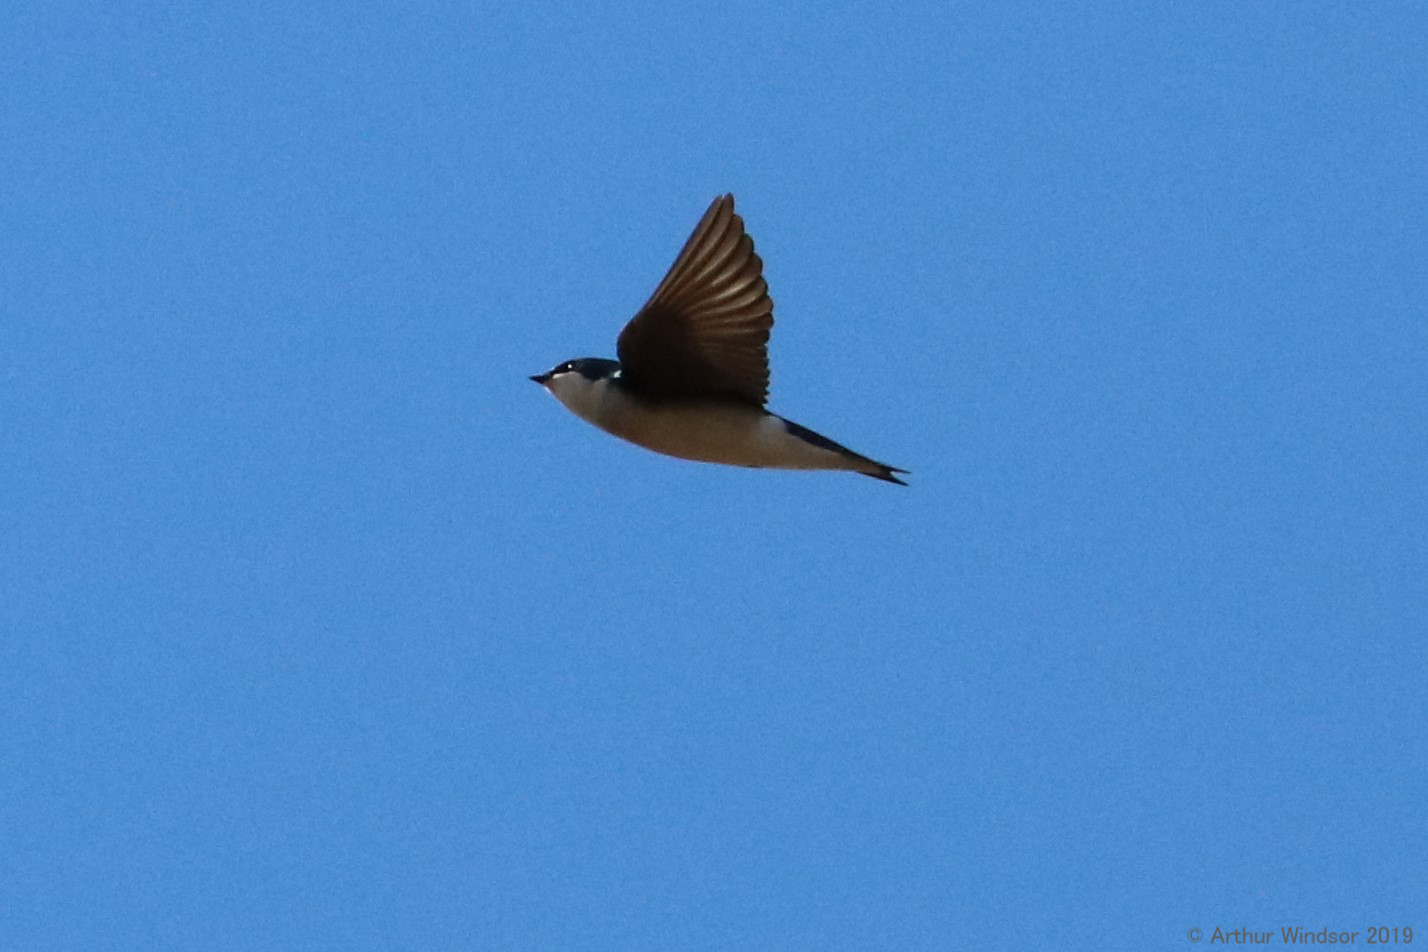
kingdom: Animalia
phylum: Chordata
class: Aves
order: Passeriformes
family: Hirundinidae
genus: Tachycineta
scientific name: Tachycineta bicolor
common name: Tree swallow
